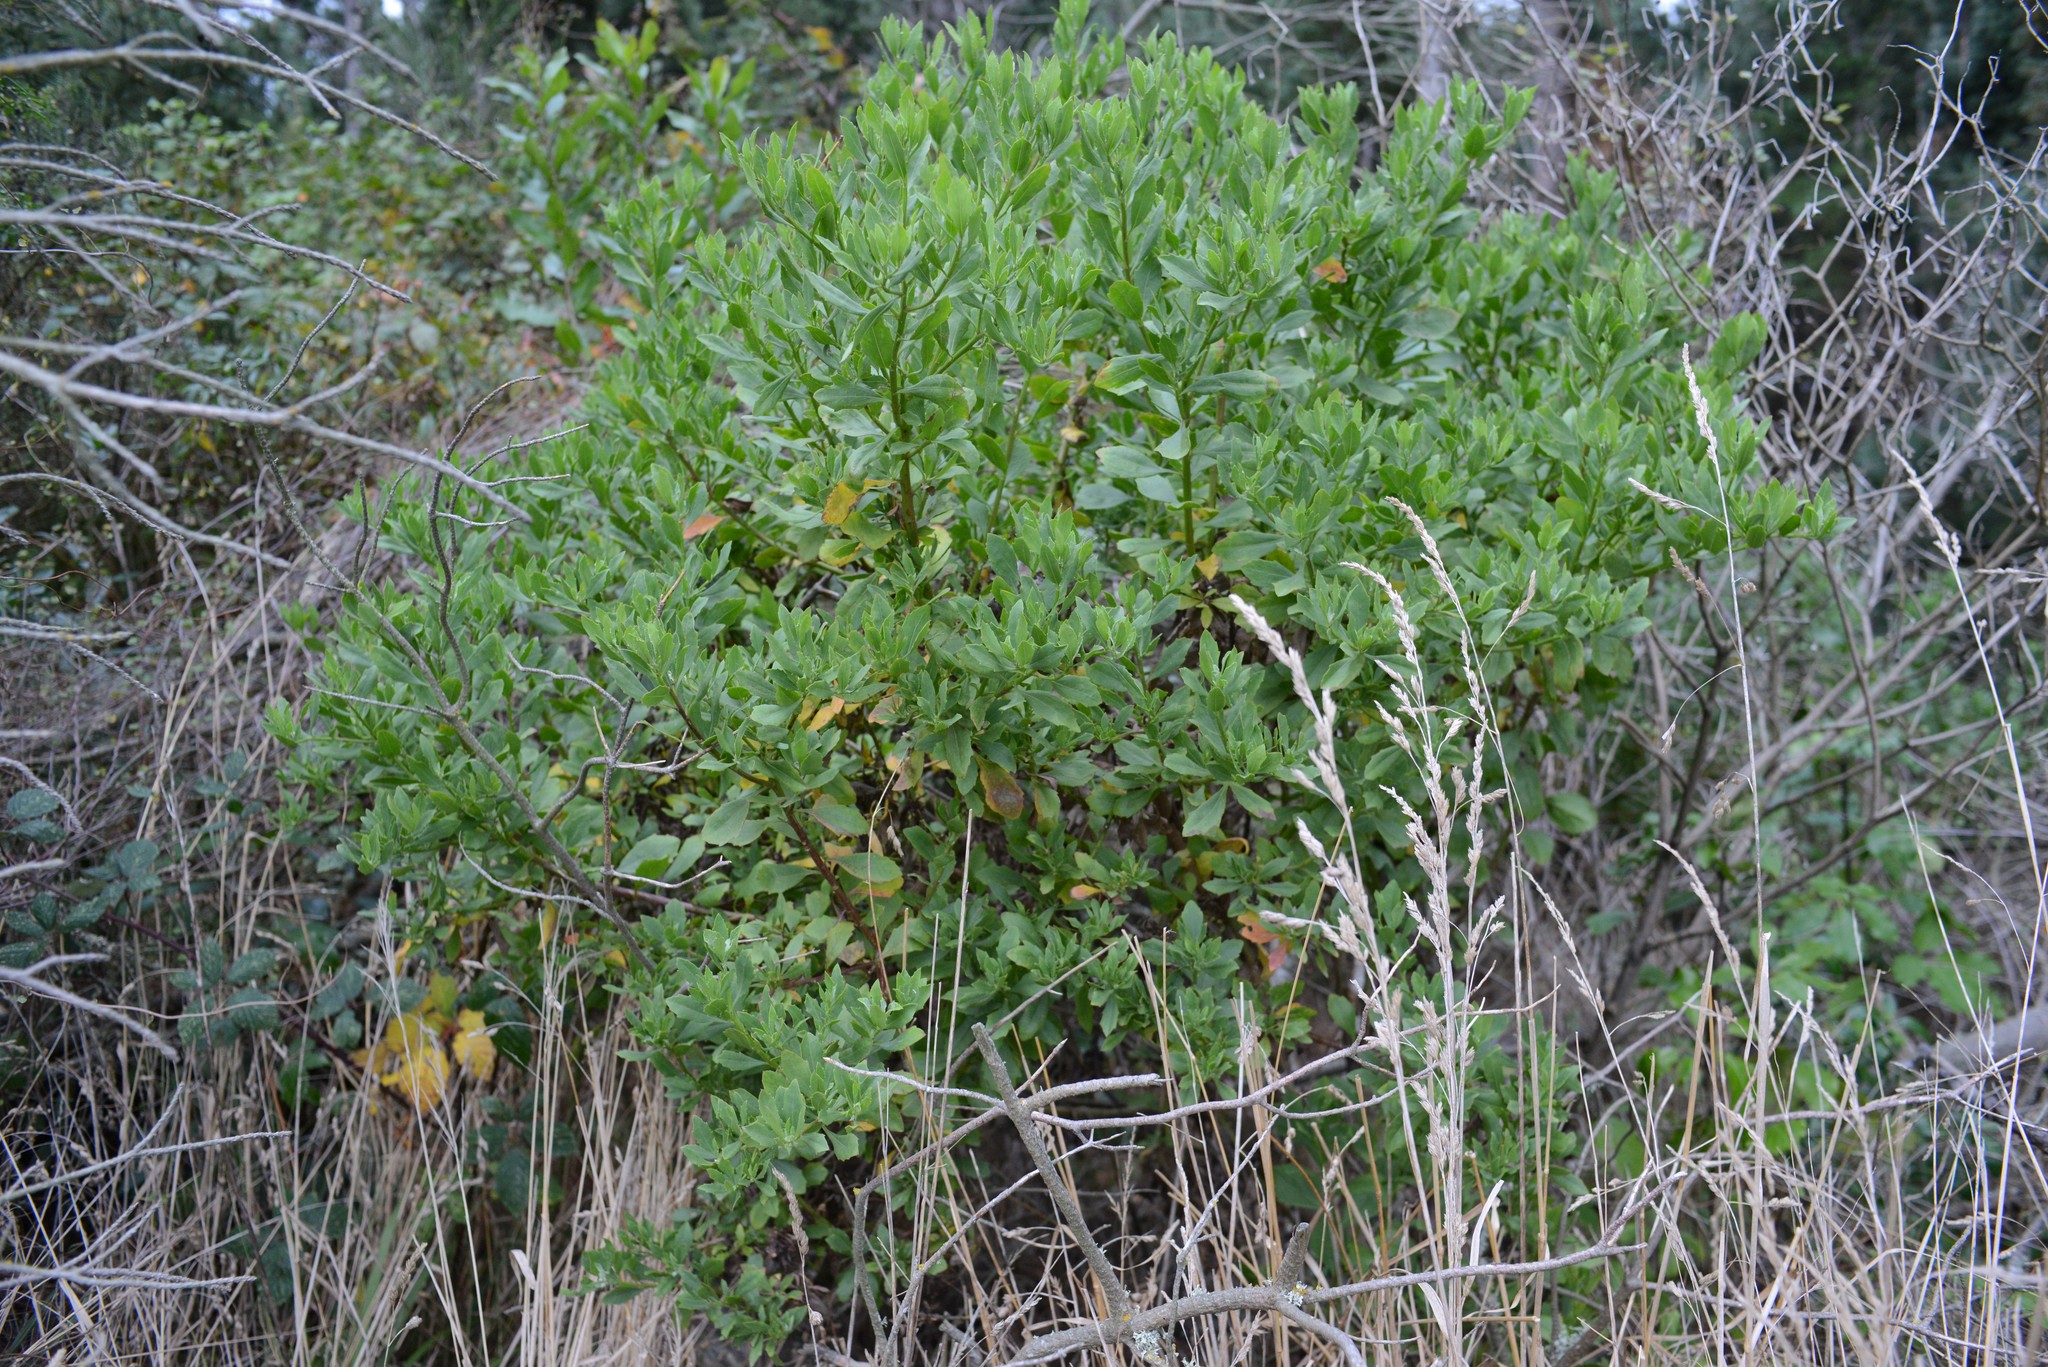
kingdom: Plantae
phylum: Tracheophyta
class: Magnoliopsida
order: Asterales
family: Asteraceae
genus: Osteospermum
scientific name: Osteospermum moniliferum
